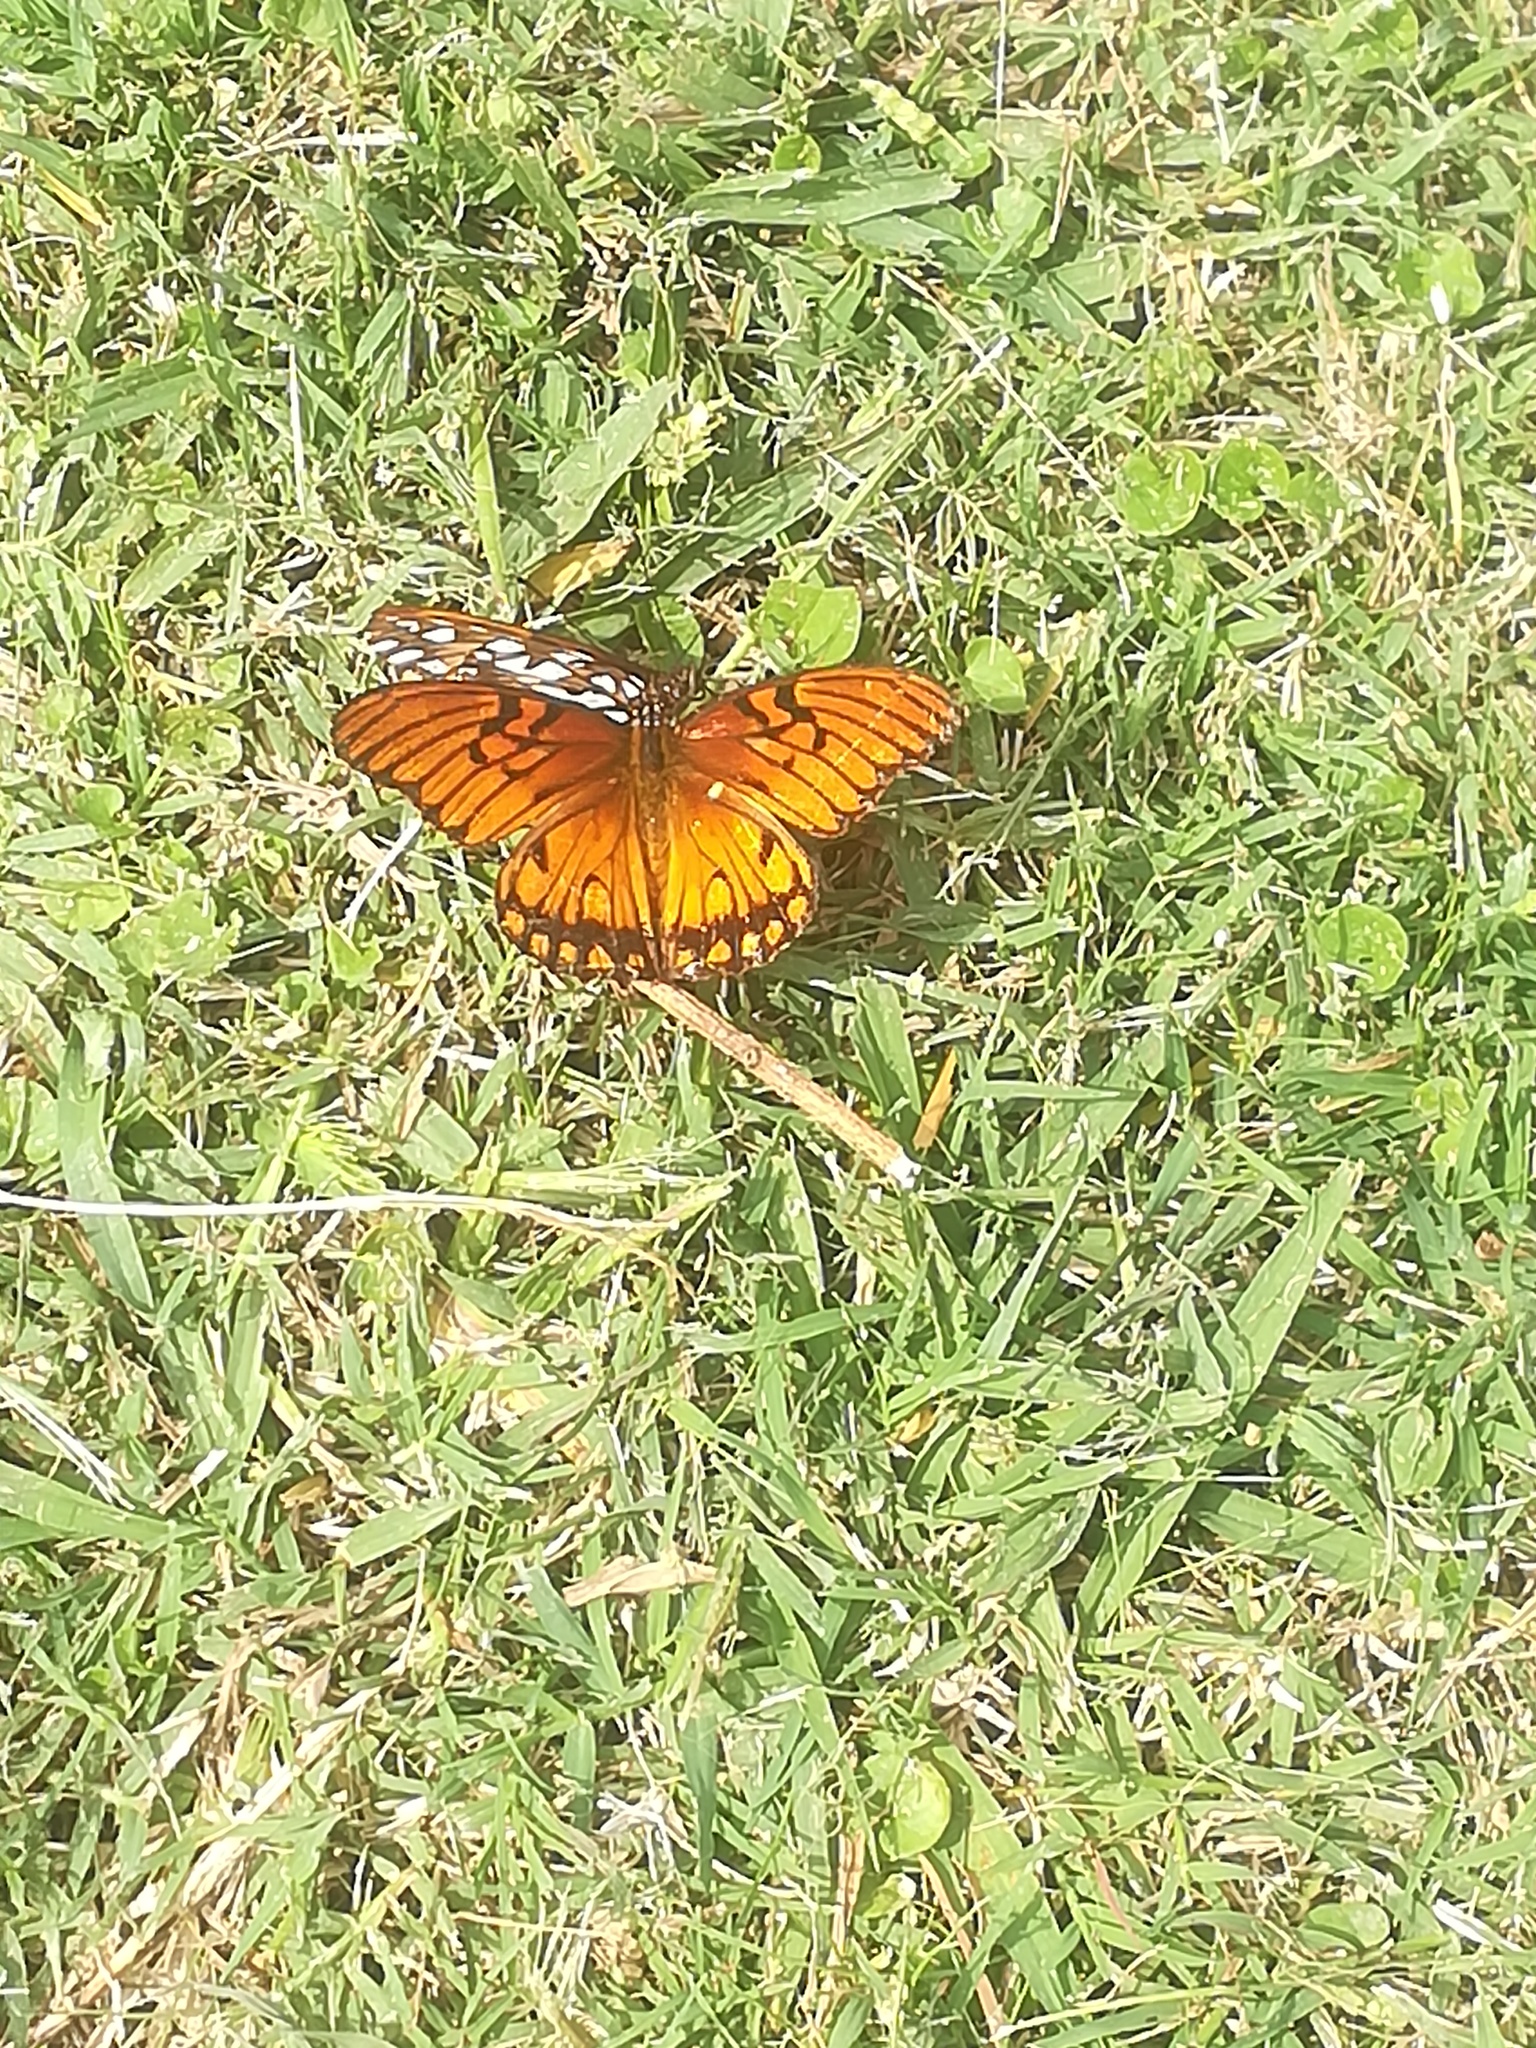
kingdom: Animalia
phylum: Arthropoda
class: Insecta
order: Lepidoptera
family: Nymphalidae
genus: Dione
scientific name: Dione moneta
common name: Mexican silverspot
